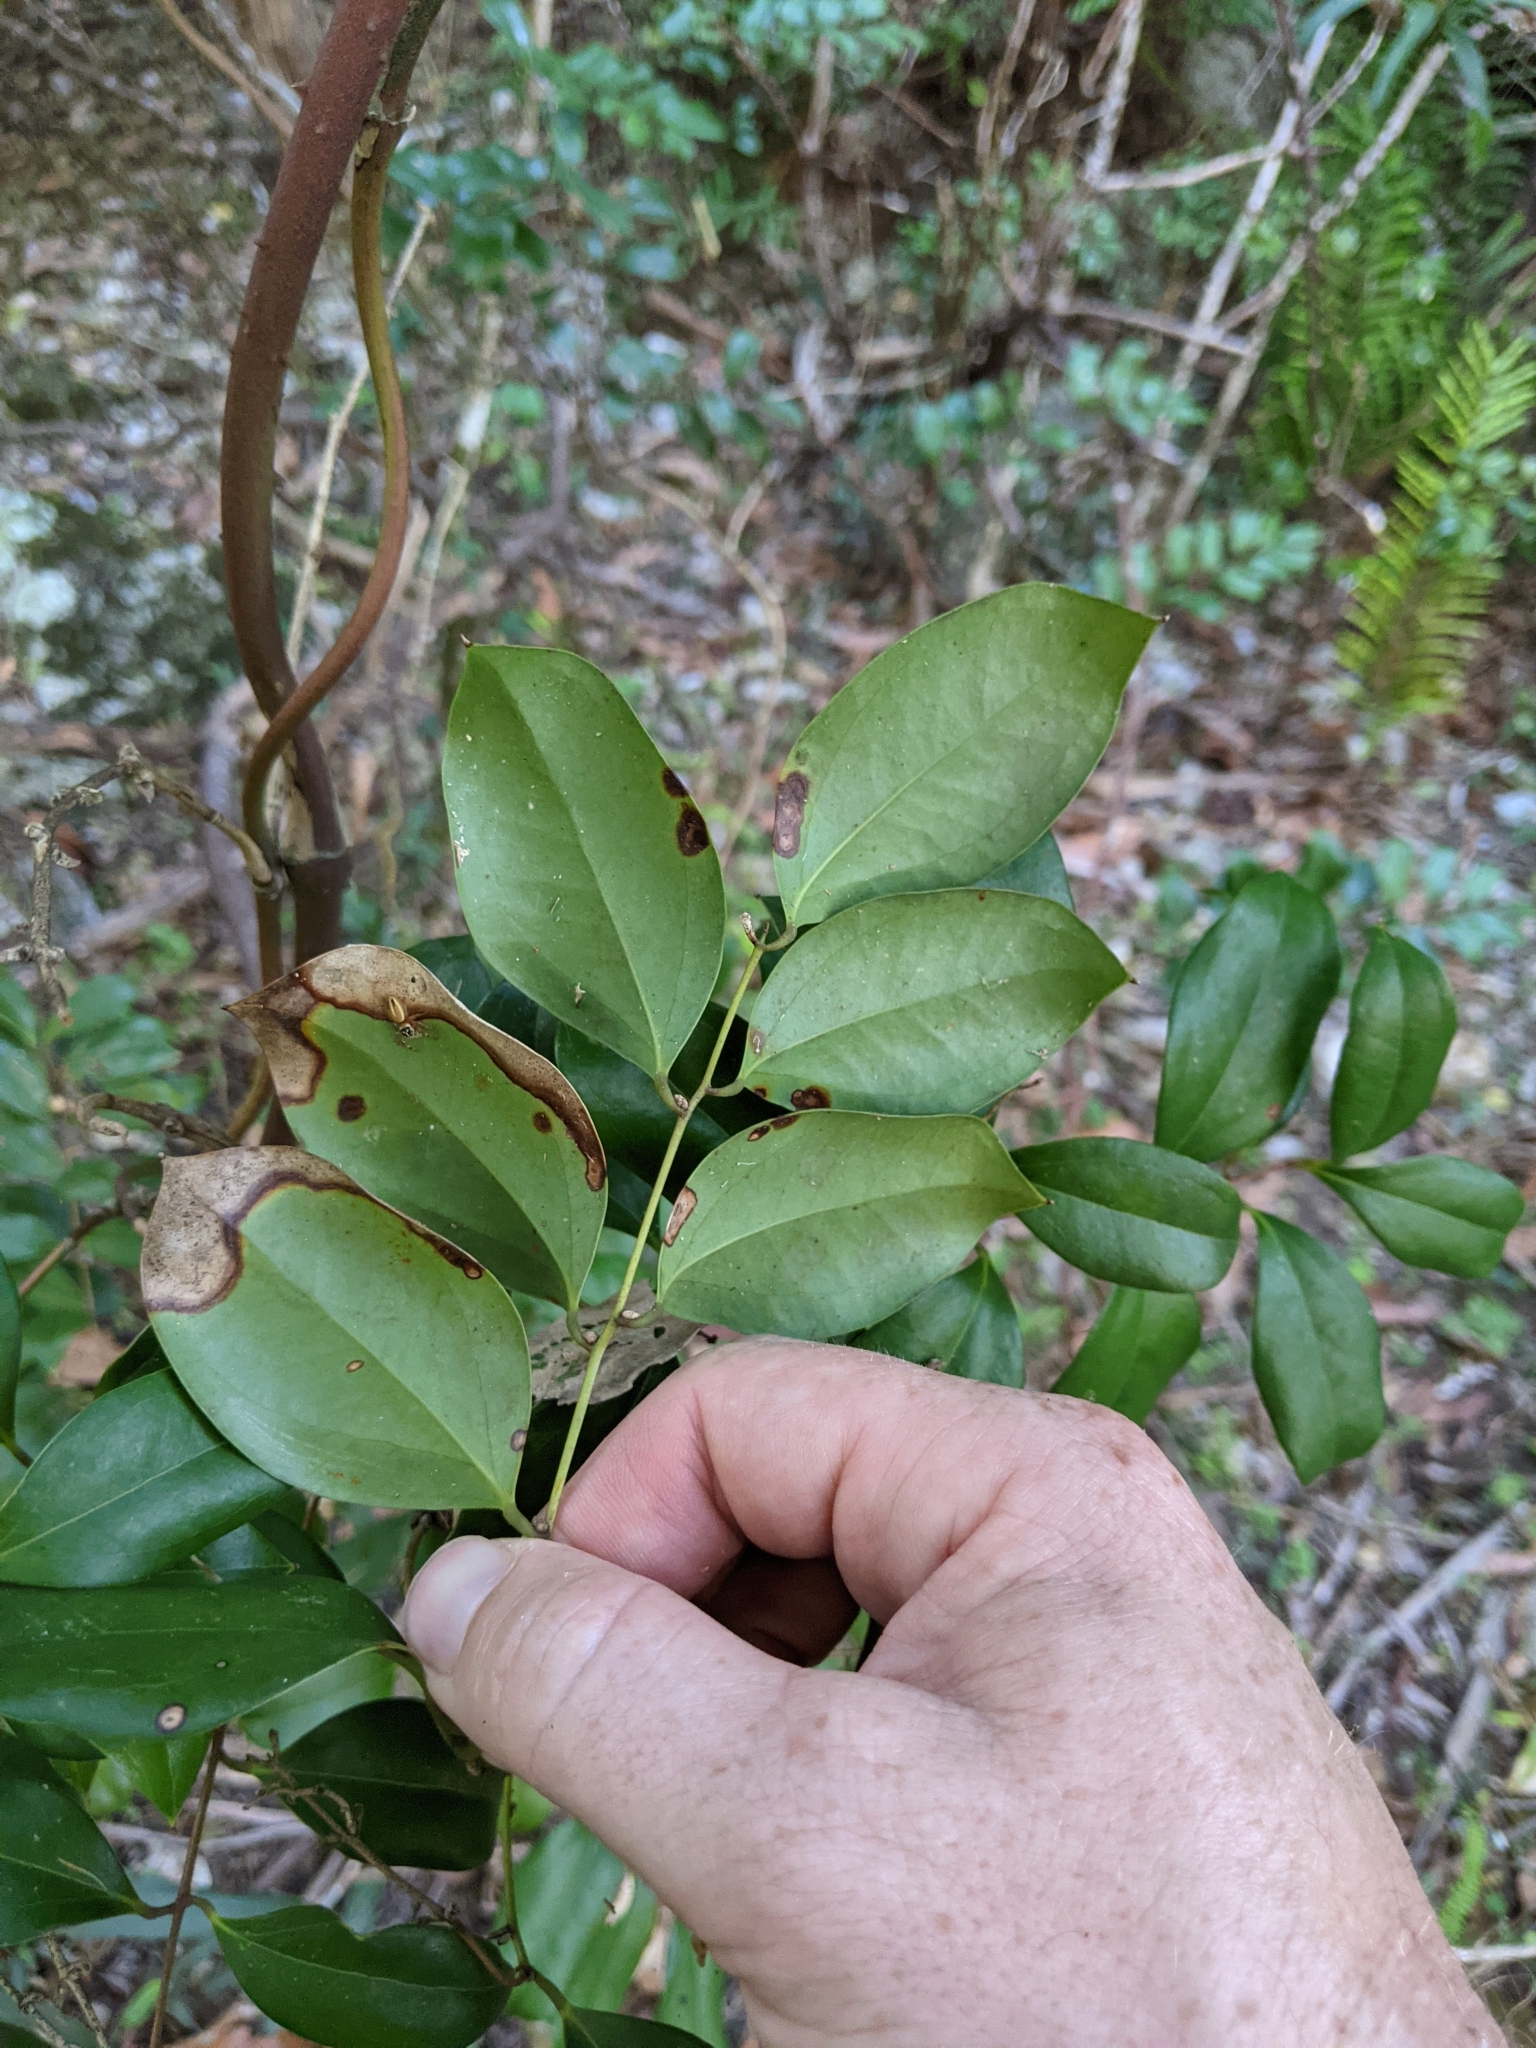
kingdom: Plantae
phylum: Tracheophyta
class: Liliopsida
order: Liliales
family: Ripogonaceae
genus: Ripogonum
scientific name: Ripogonum brevifolium
